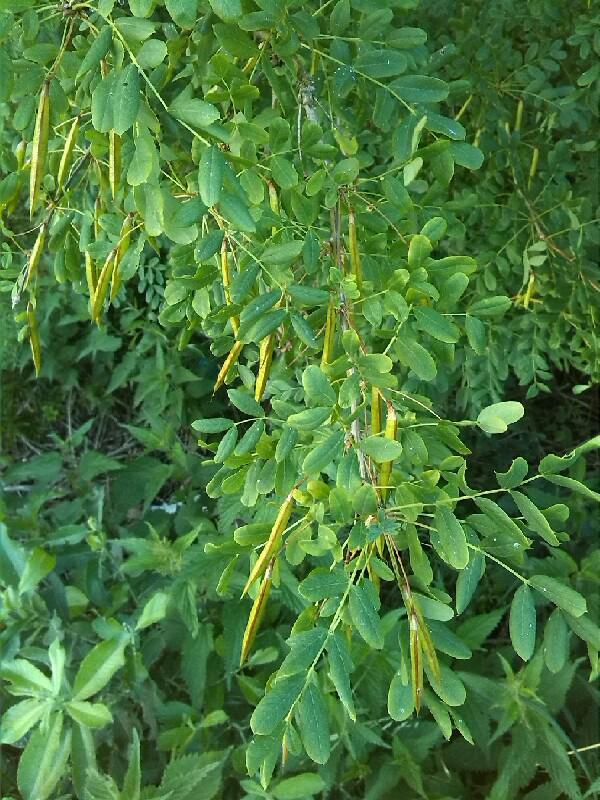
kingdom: Plantae
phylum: Tracheophyta
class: Magnoliopsida
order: Fabales
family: Fabaceae
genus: Caragana
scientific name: Caragana arborescens
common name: Siberian peashrub
